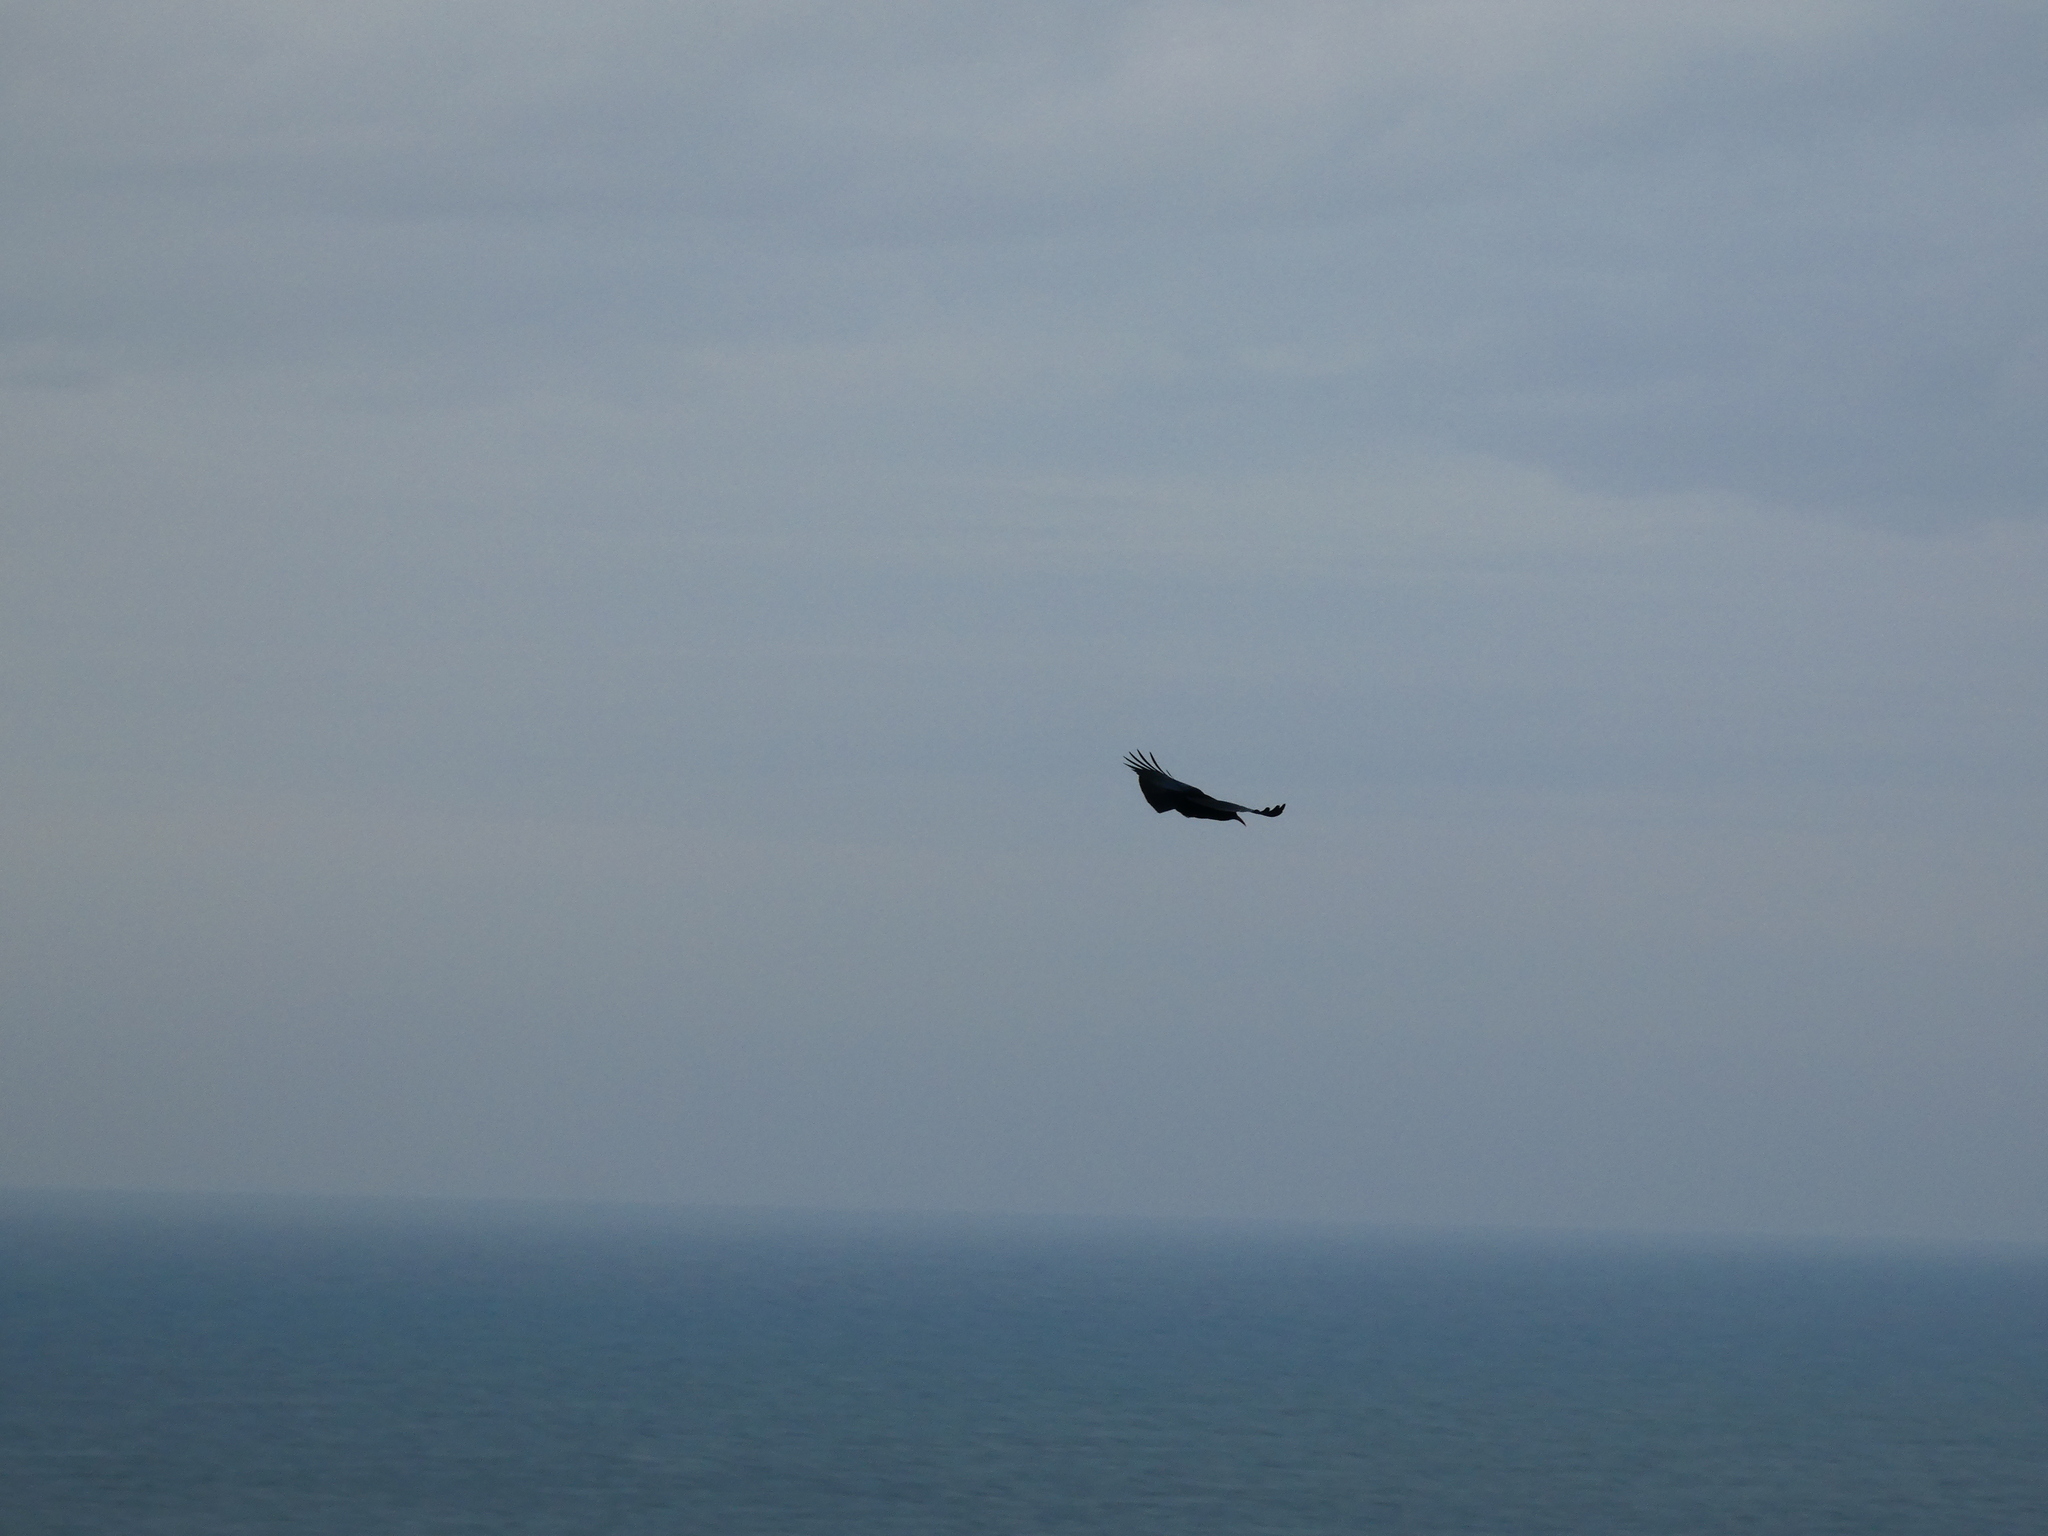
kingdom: Animalia
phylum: Chordata
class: Aves
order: Passeriformes
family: Corvidae
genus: Pyrrhocorax
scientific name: Pyrrhocorax pyrrhocorax
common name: Red-billed chough
